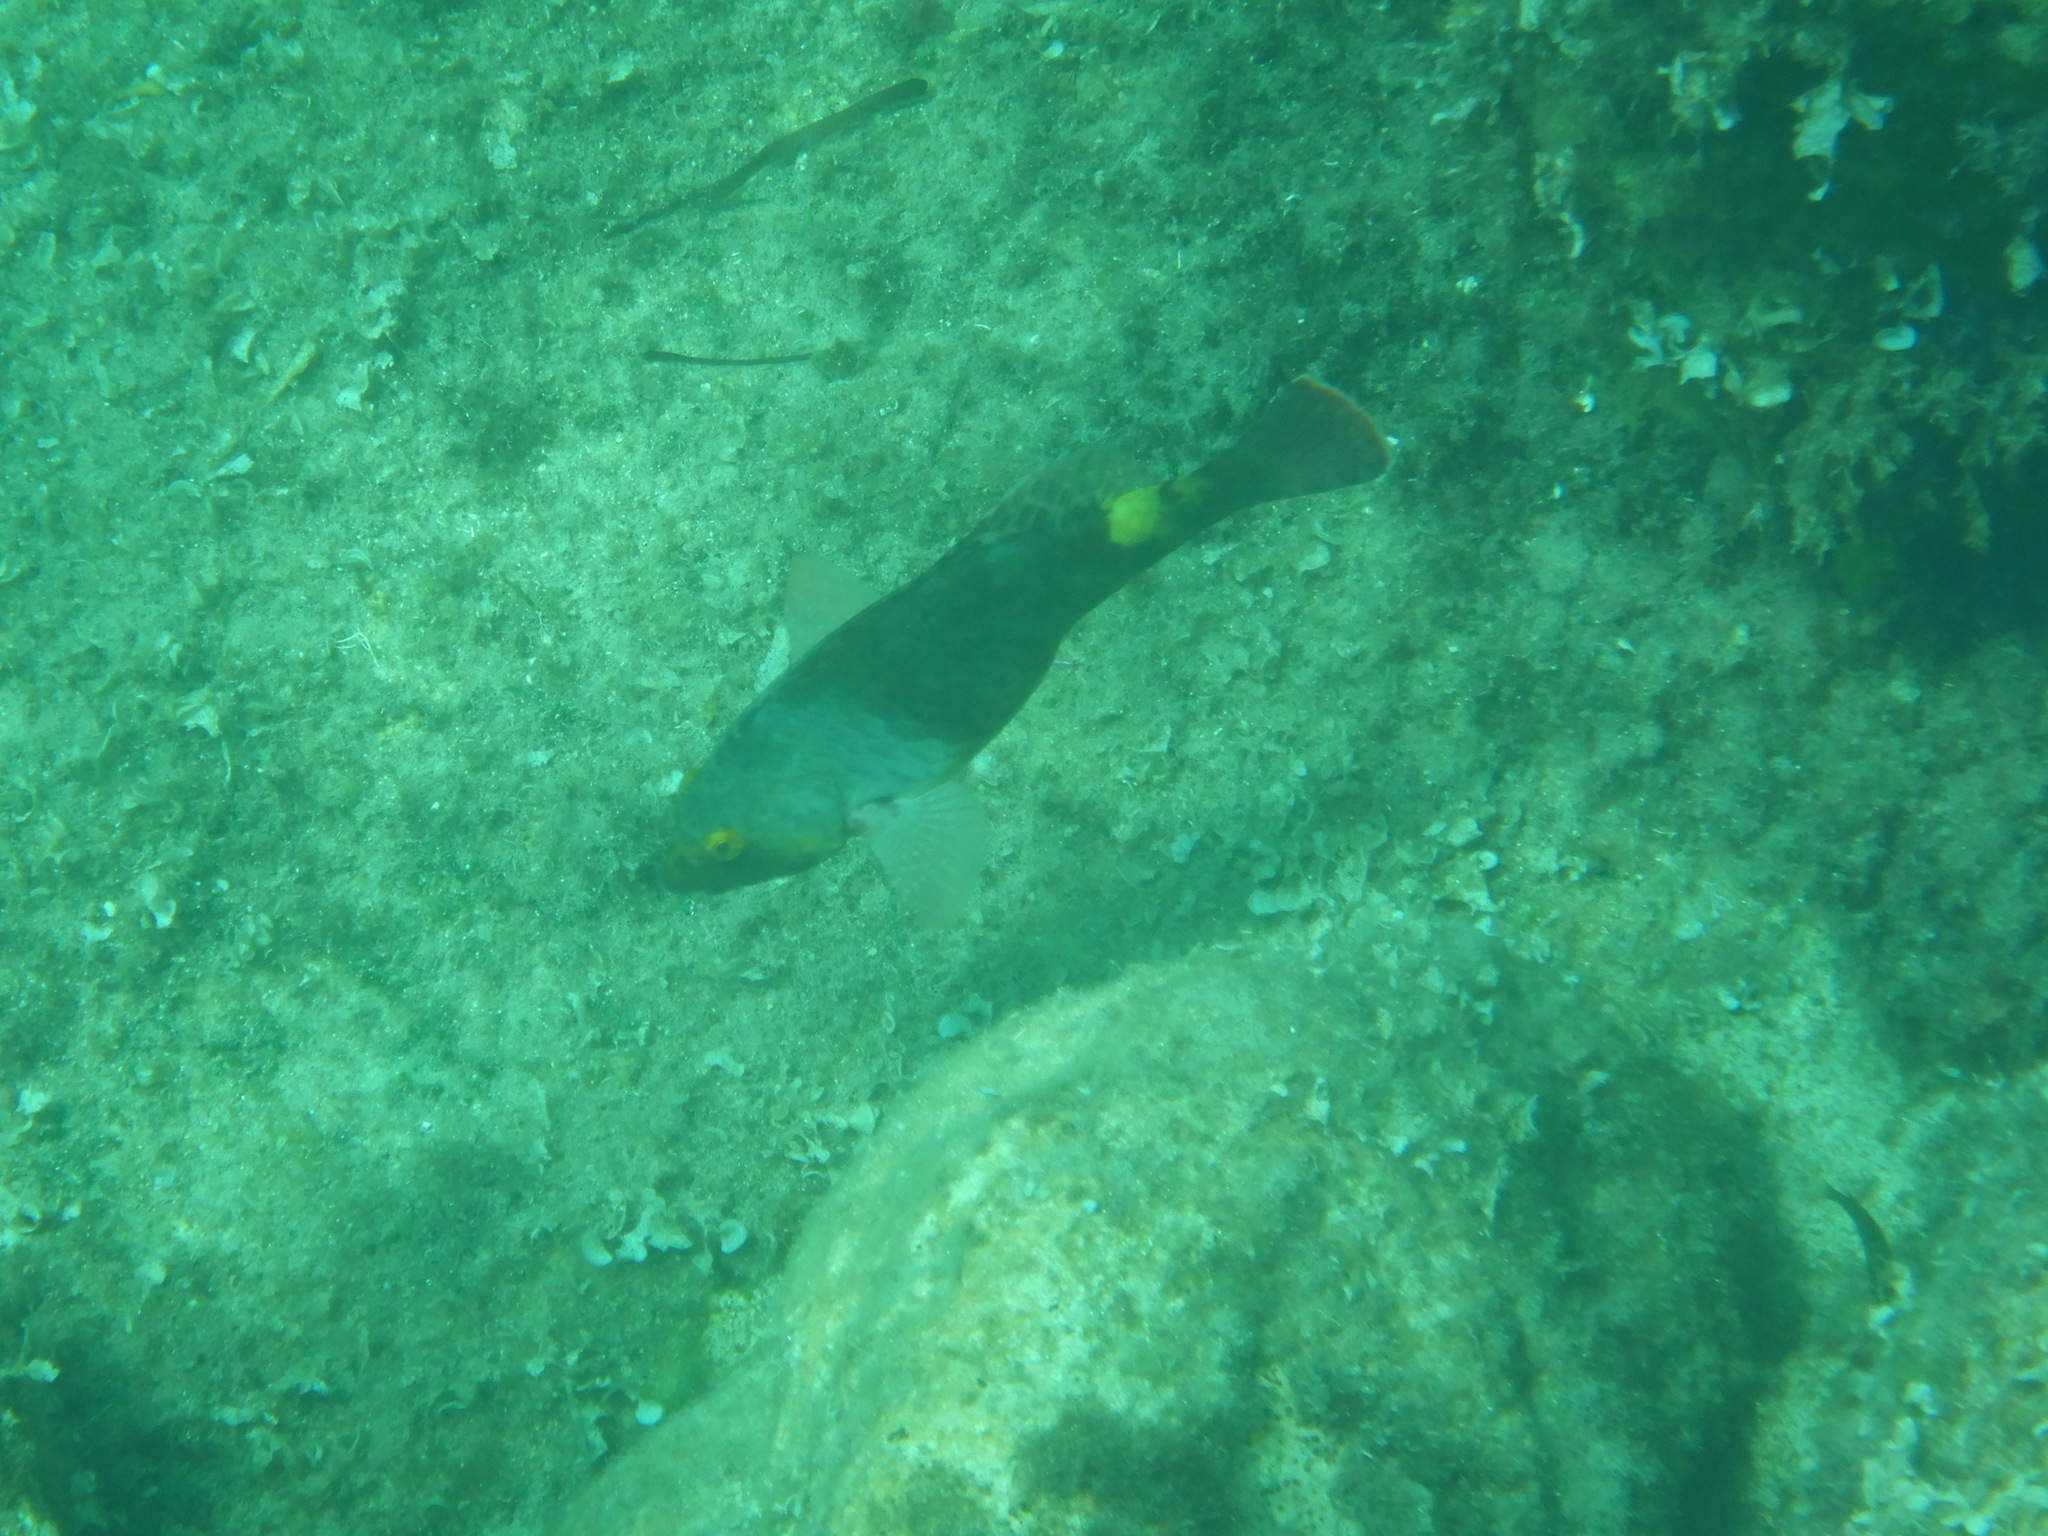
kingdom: Animalia
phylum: Chordata
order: Perciformes
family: Scaridae
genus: Sparisoma
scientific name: Sparisoma cretense
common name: Parrotfish
